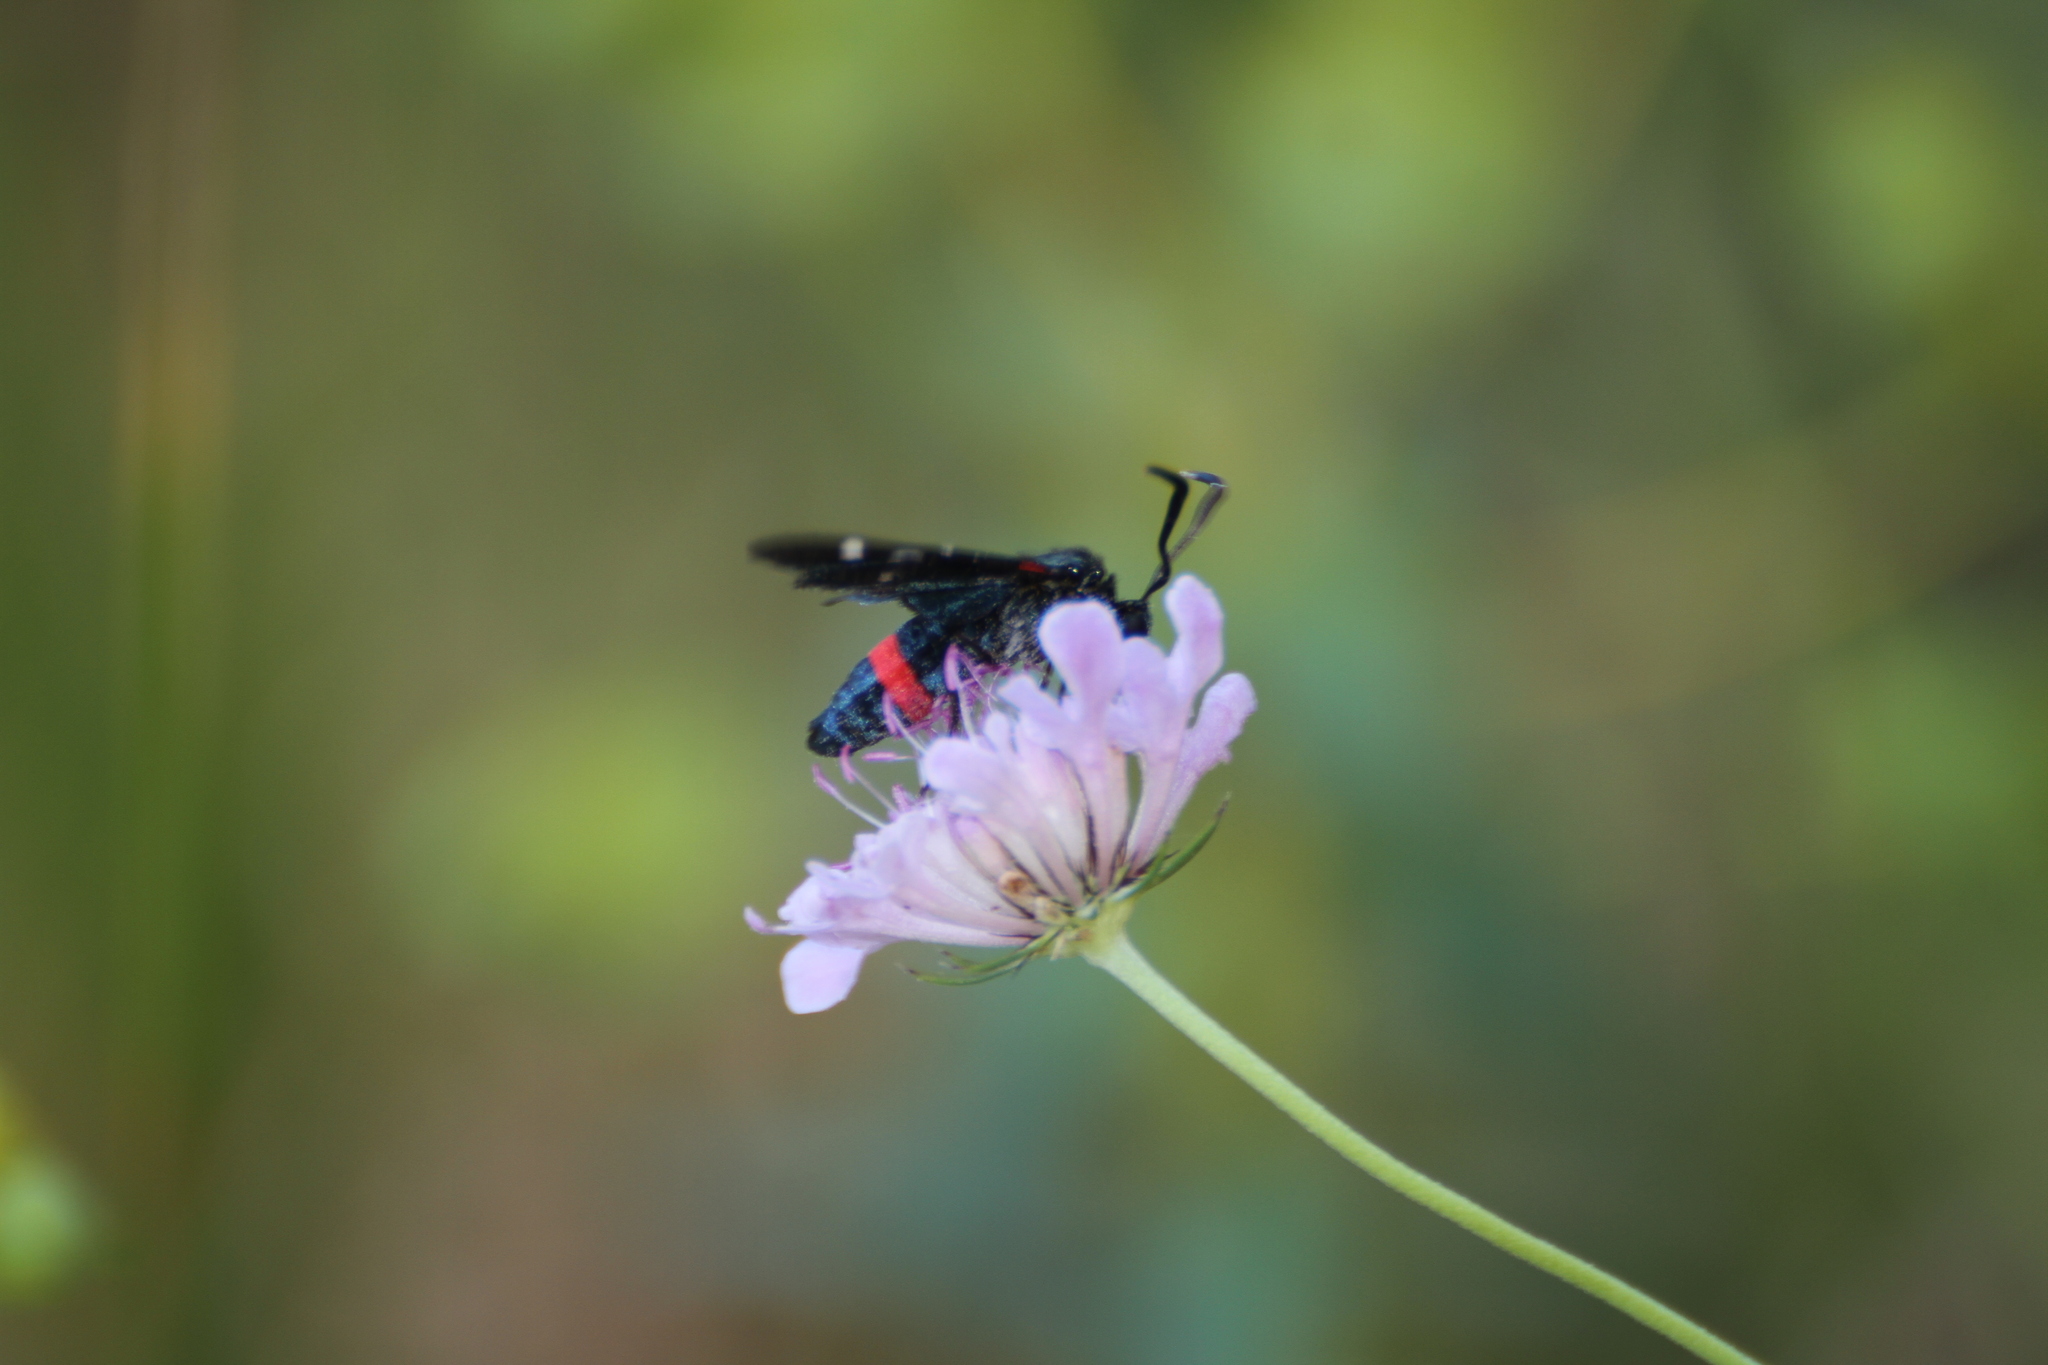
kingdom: Animalia
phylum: Arthropoda
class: Insecta
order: Lepidoptera
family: Zygaenidae
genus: Zygaena
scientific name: Zygaena ephialtes
